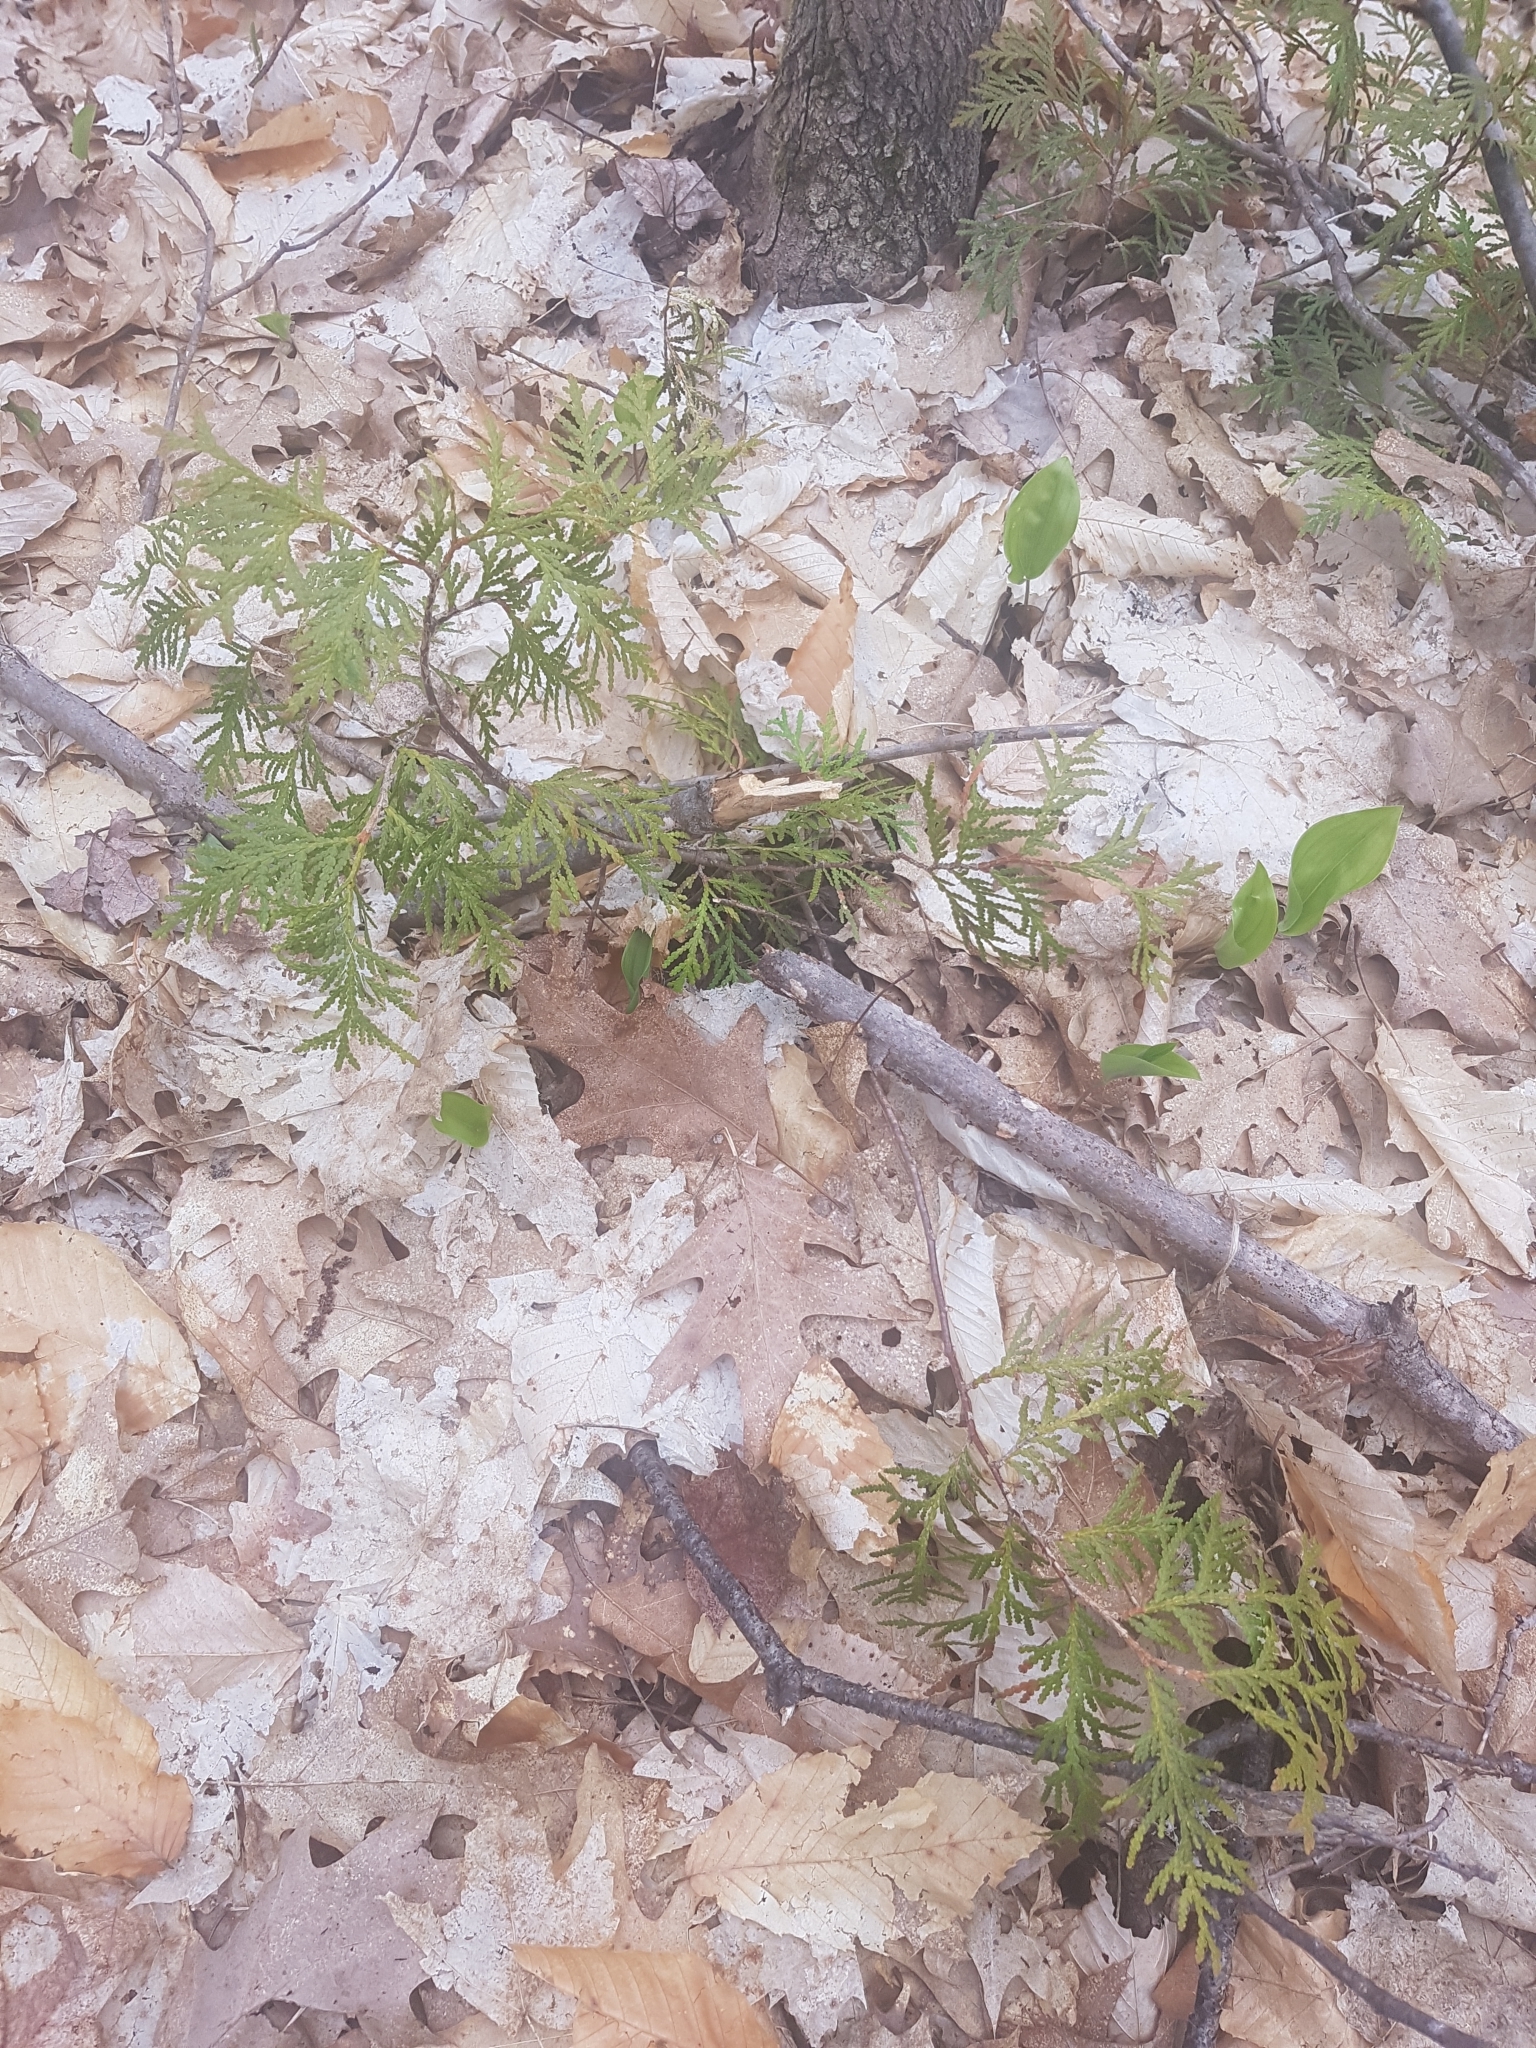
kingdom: Plantae
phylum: Tracheophyta
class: Pinopsida
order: Pinales
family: Cupressaceae
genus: Thuja
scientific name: Thuja occidentalis
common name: Northern white-cedar
